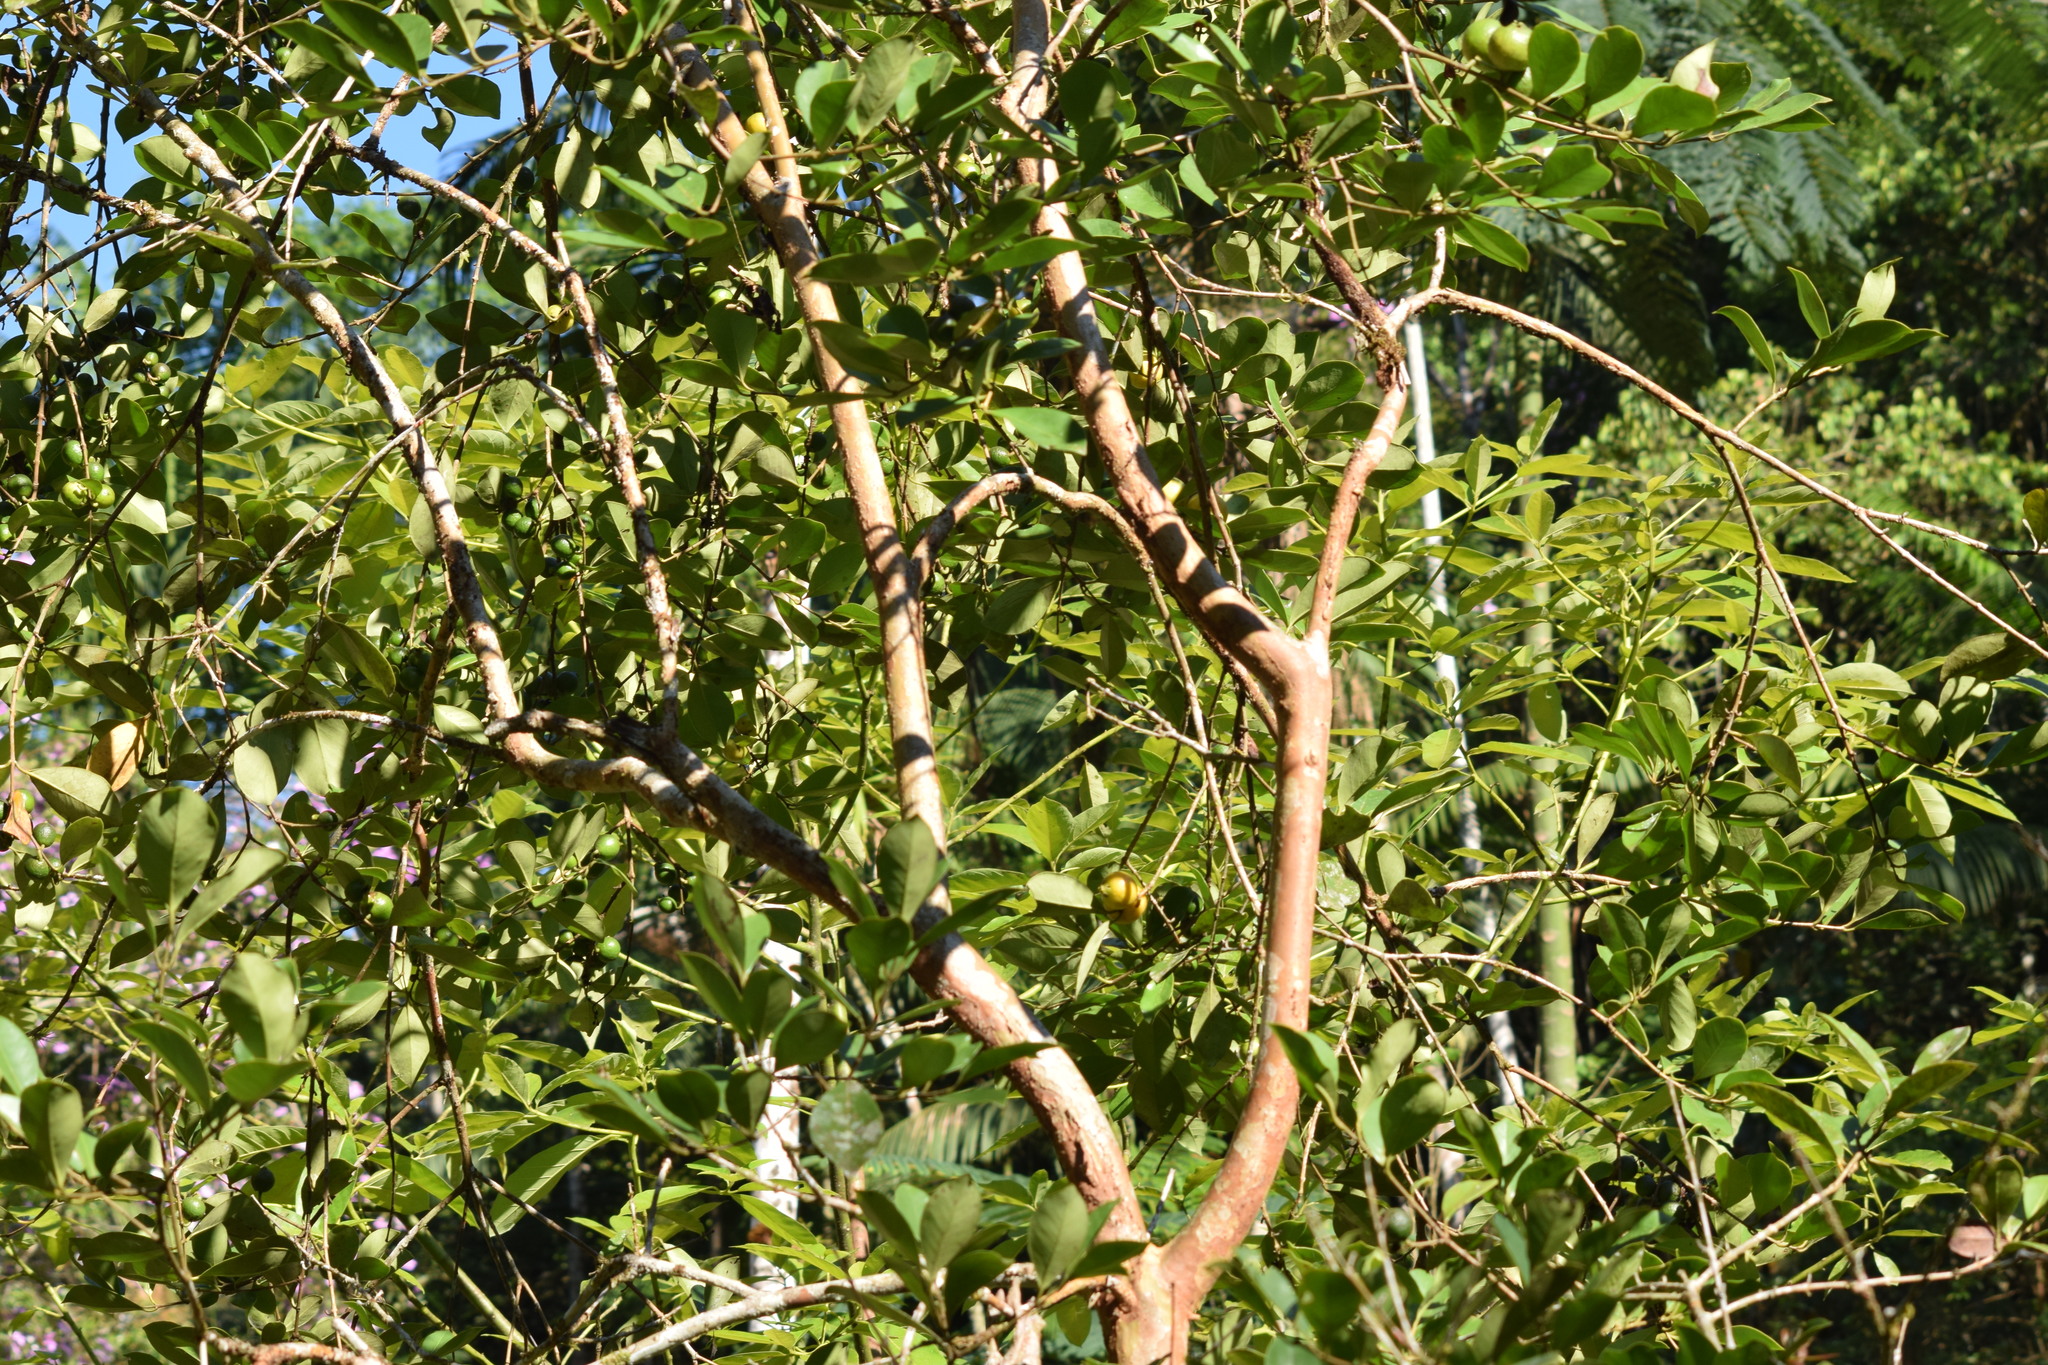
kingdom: Plantae
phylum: Tracheophyta
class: Magnoliopsida
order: Myrtales
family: Myrtaceae
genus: Psidium
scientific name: Psidium cattleianum
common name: Strawberry guava
